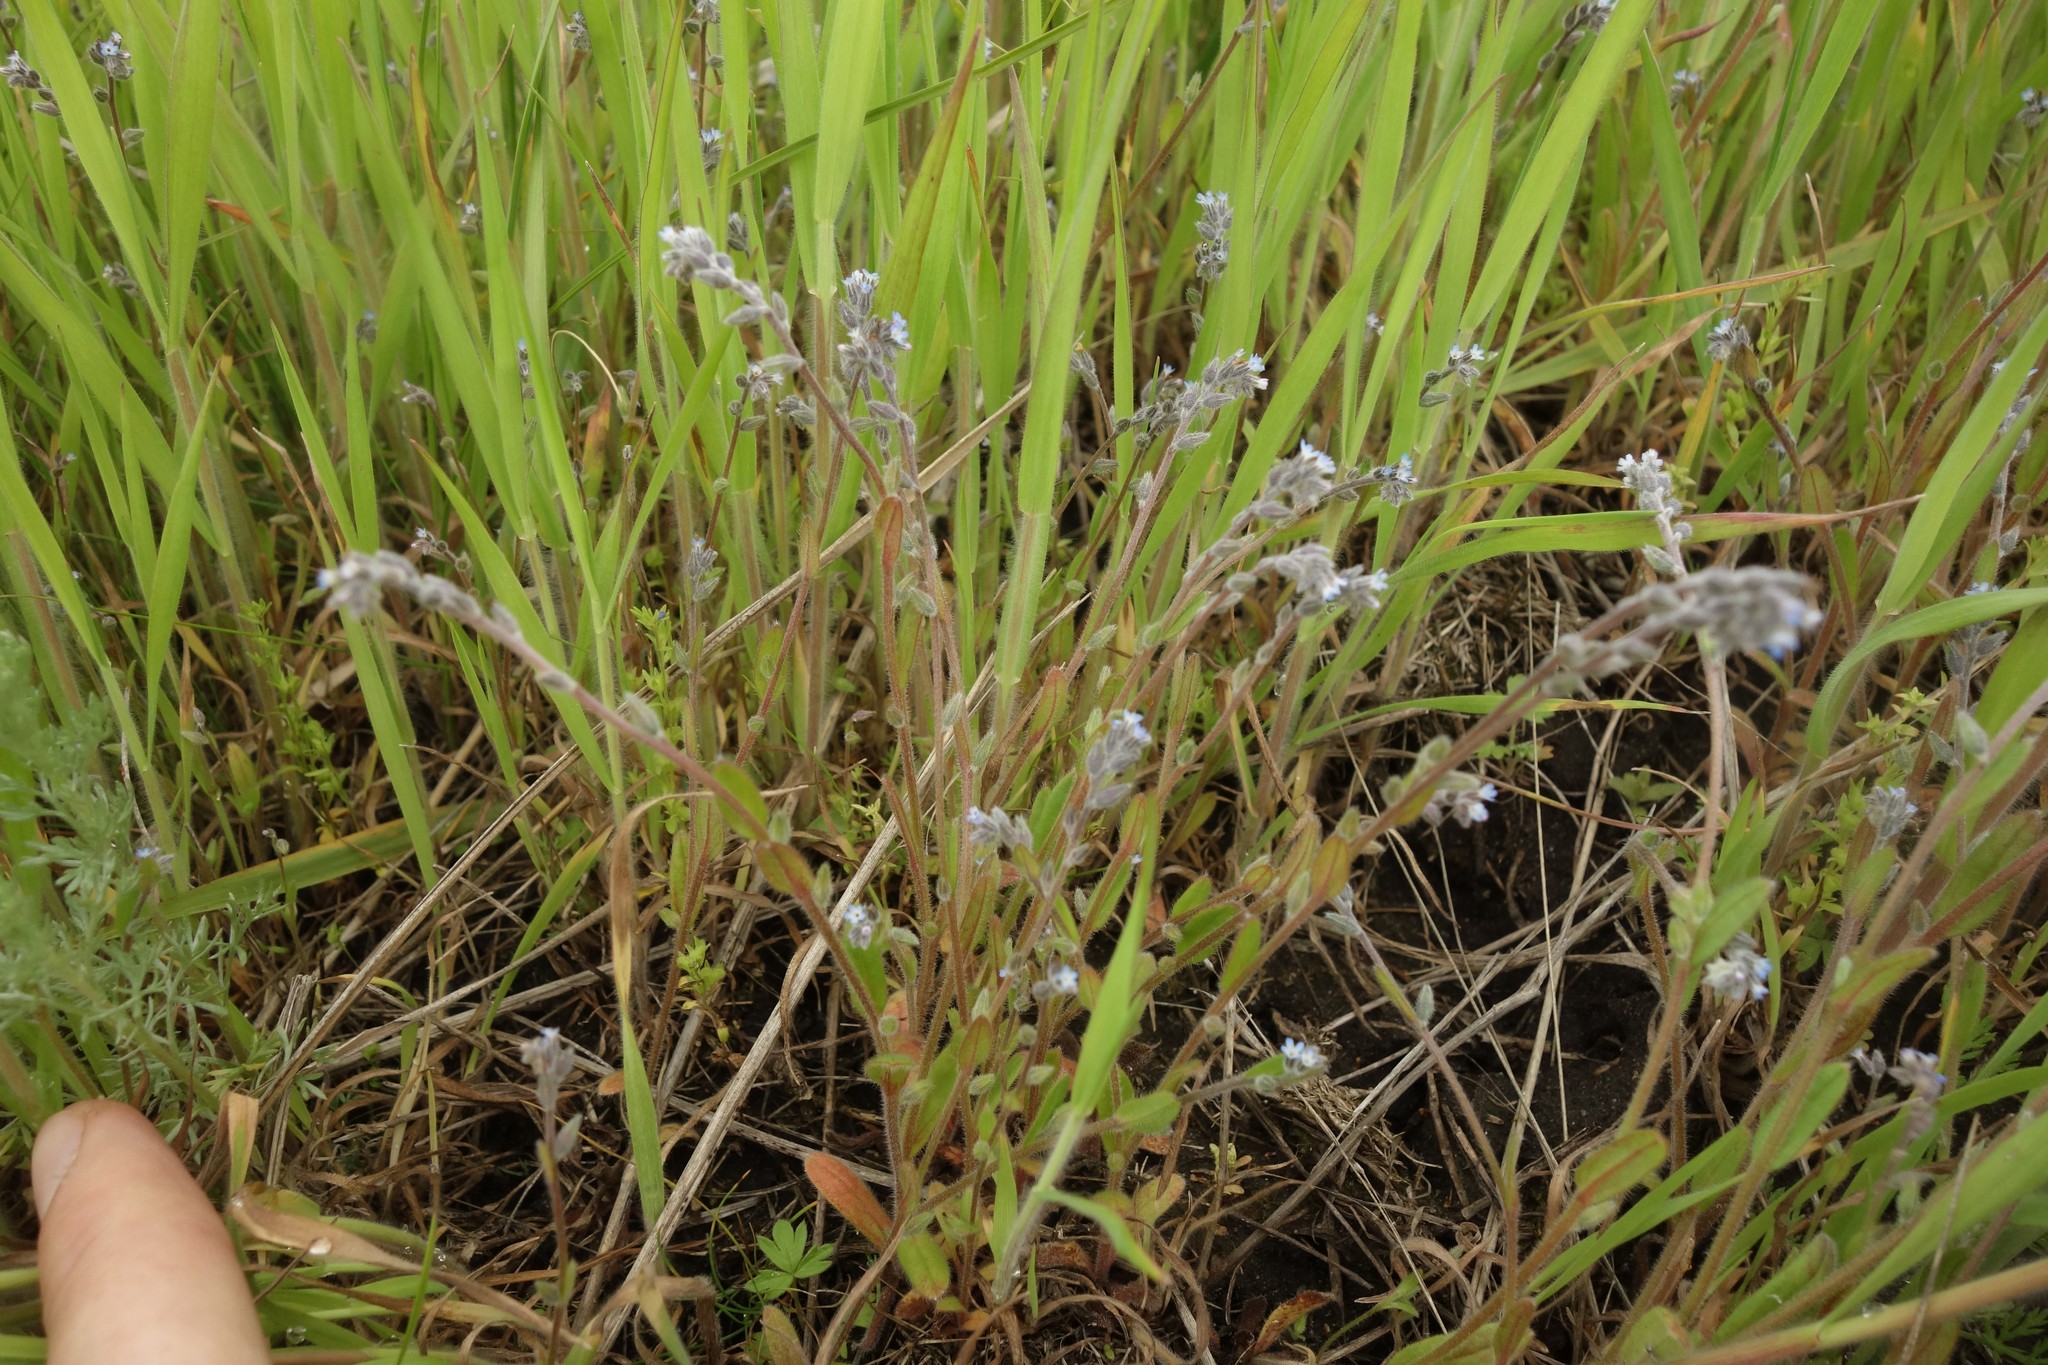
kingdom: Plantae
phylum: Tracheophyta
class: Magnoliopsida
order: Boraginales
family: Boraginaceae
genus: Myosotis
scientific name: Myosotis stricta
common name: Strict forget-me-not
